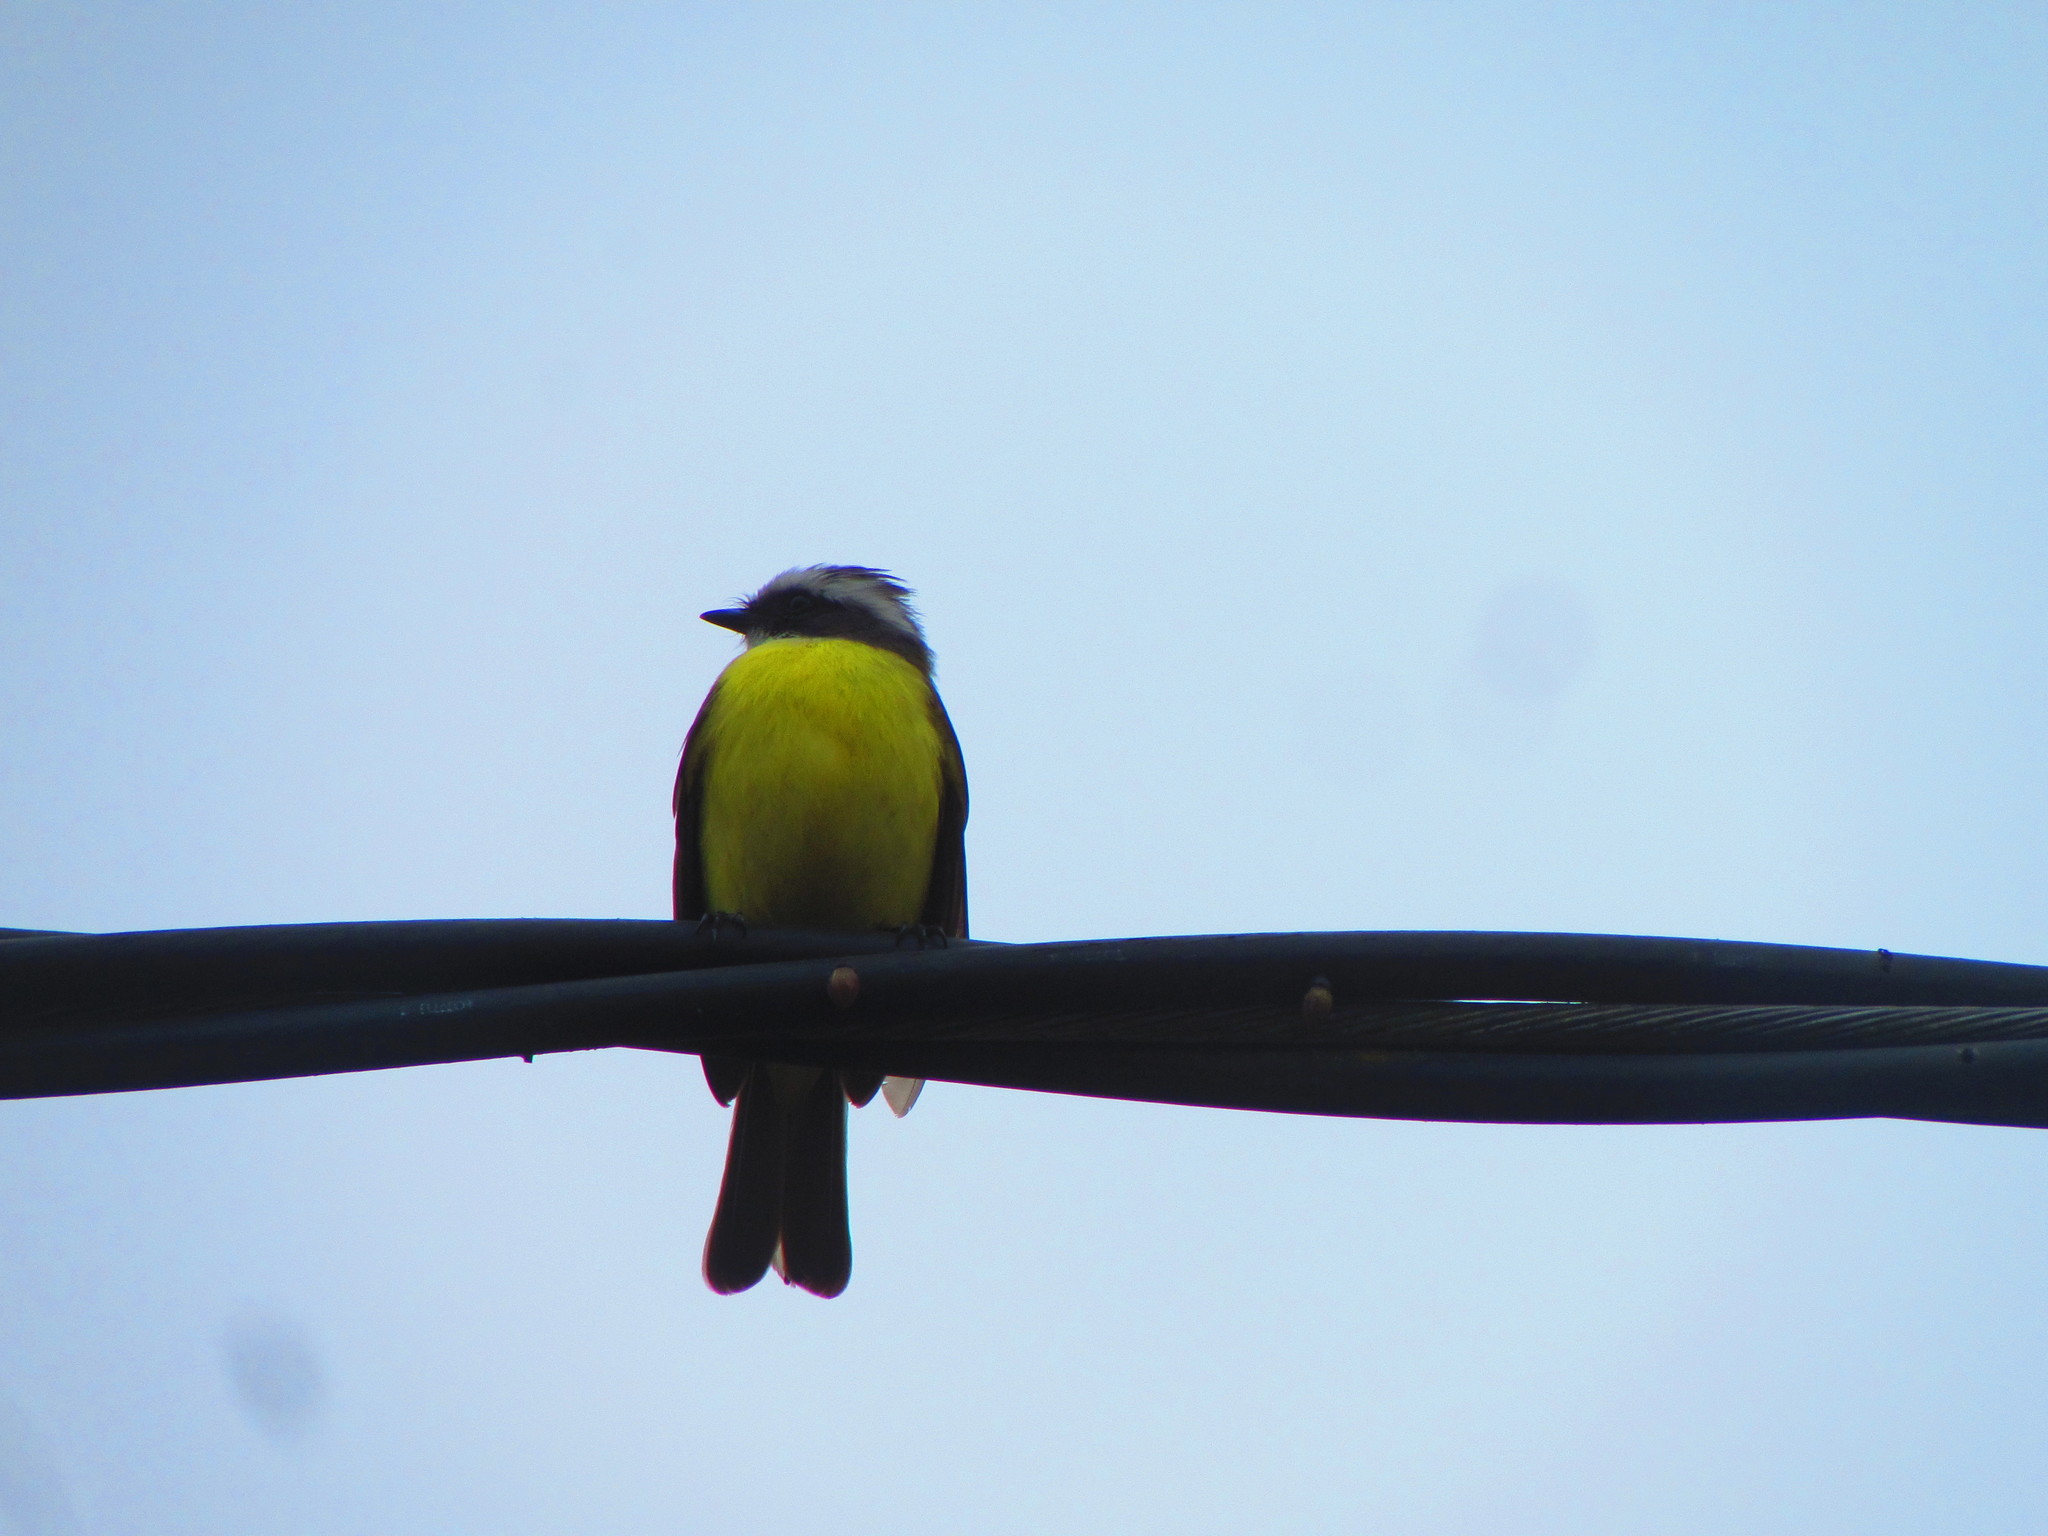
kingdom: Animalia
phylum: Chordata
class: Aves
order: Passeriformes
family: Tyrannidae
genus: Myiozetetes
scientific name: Myiozetetes similis
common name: Social flycatcher
